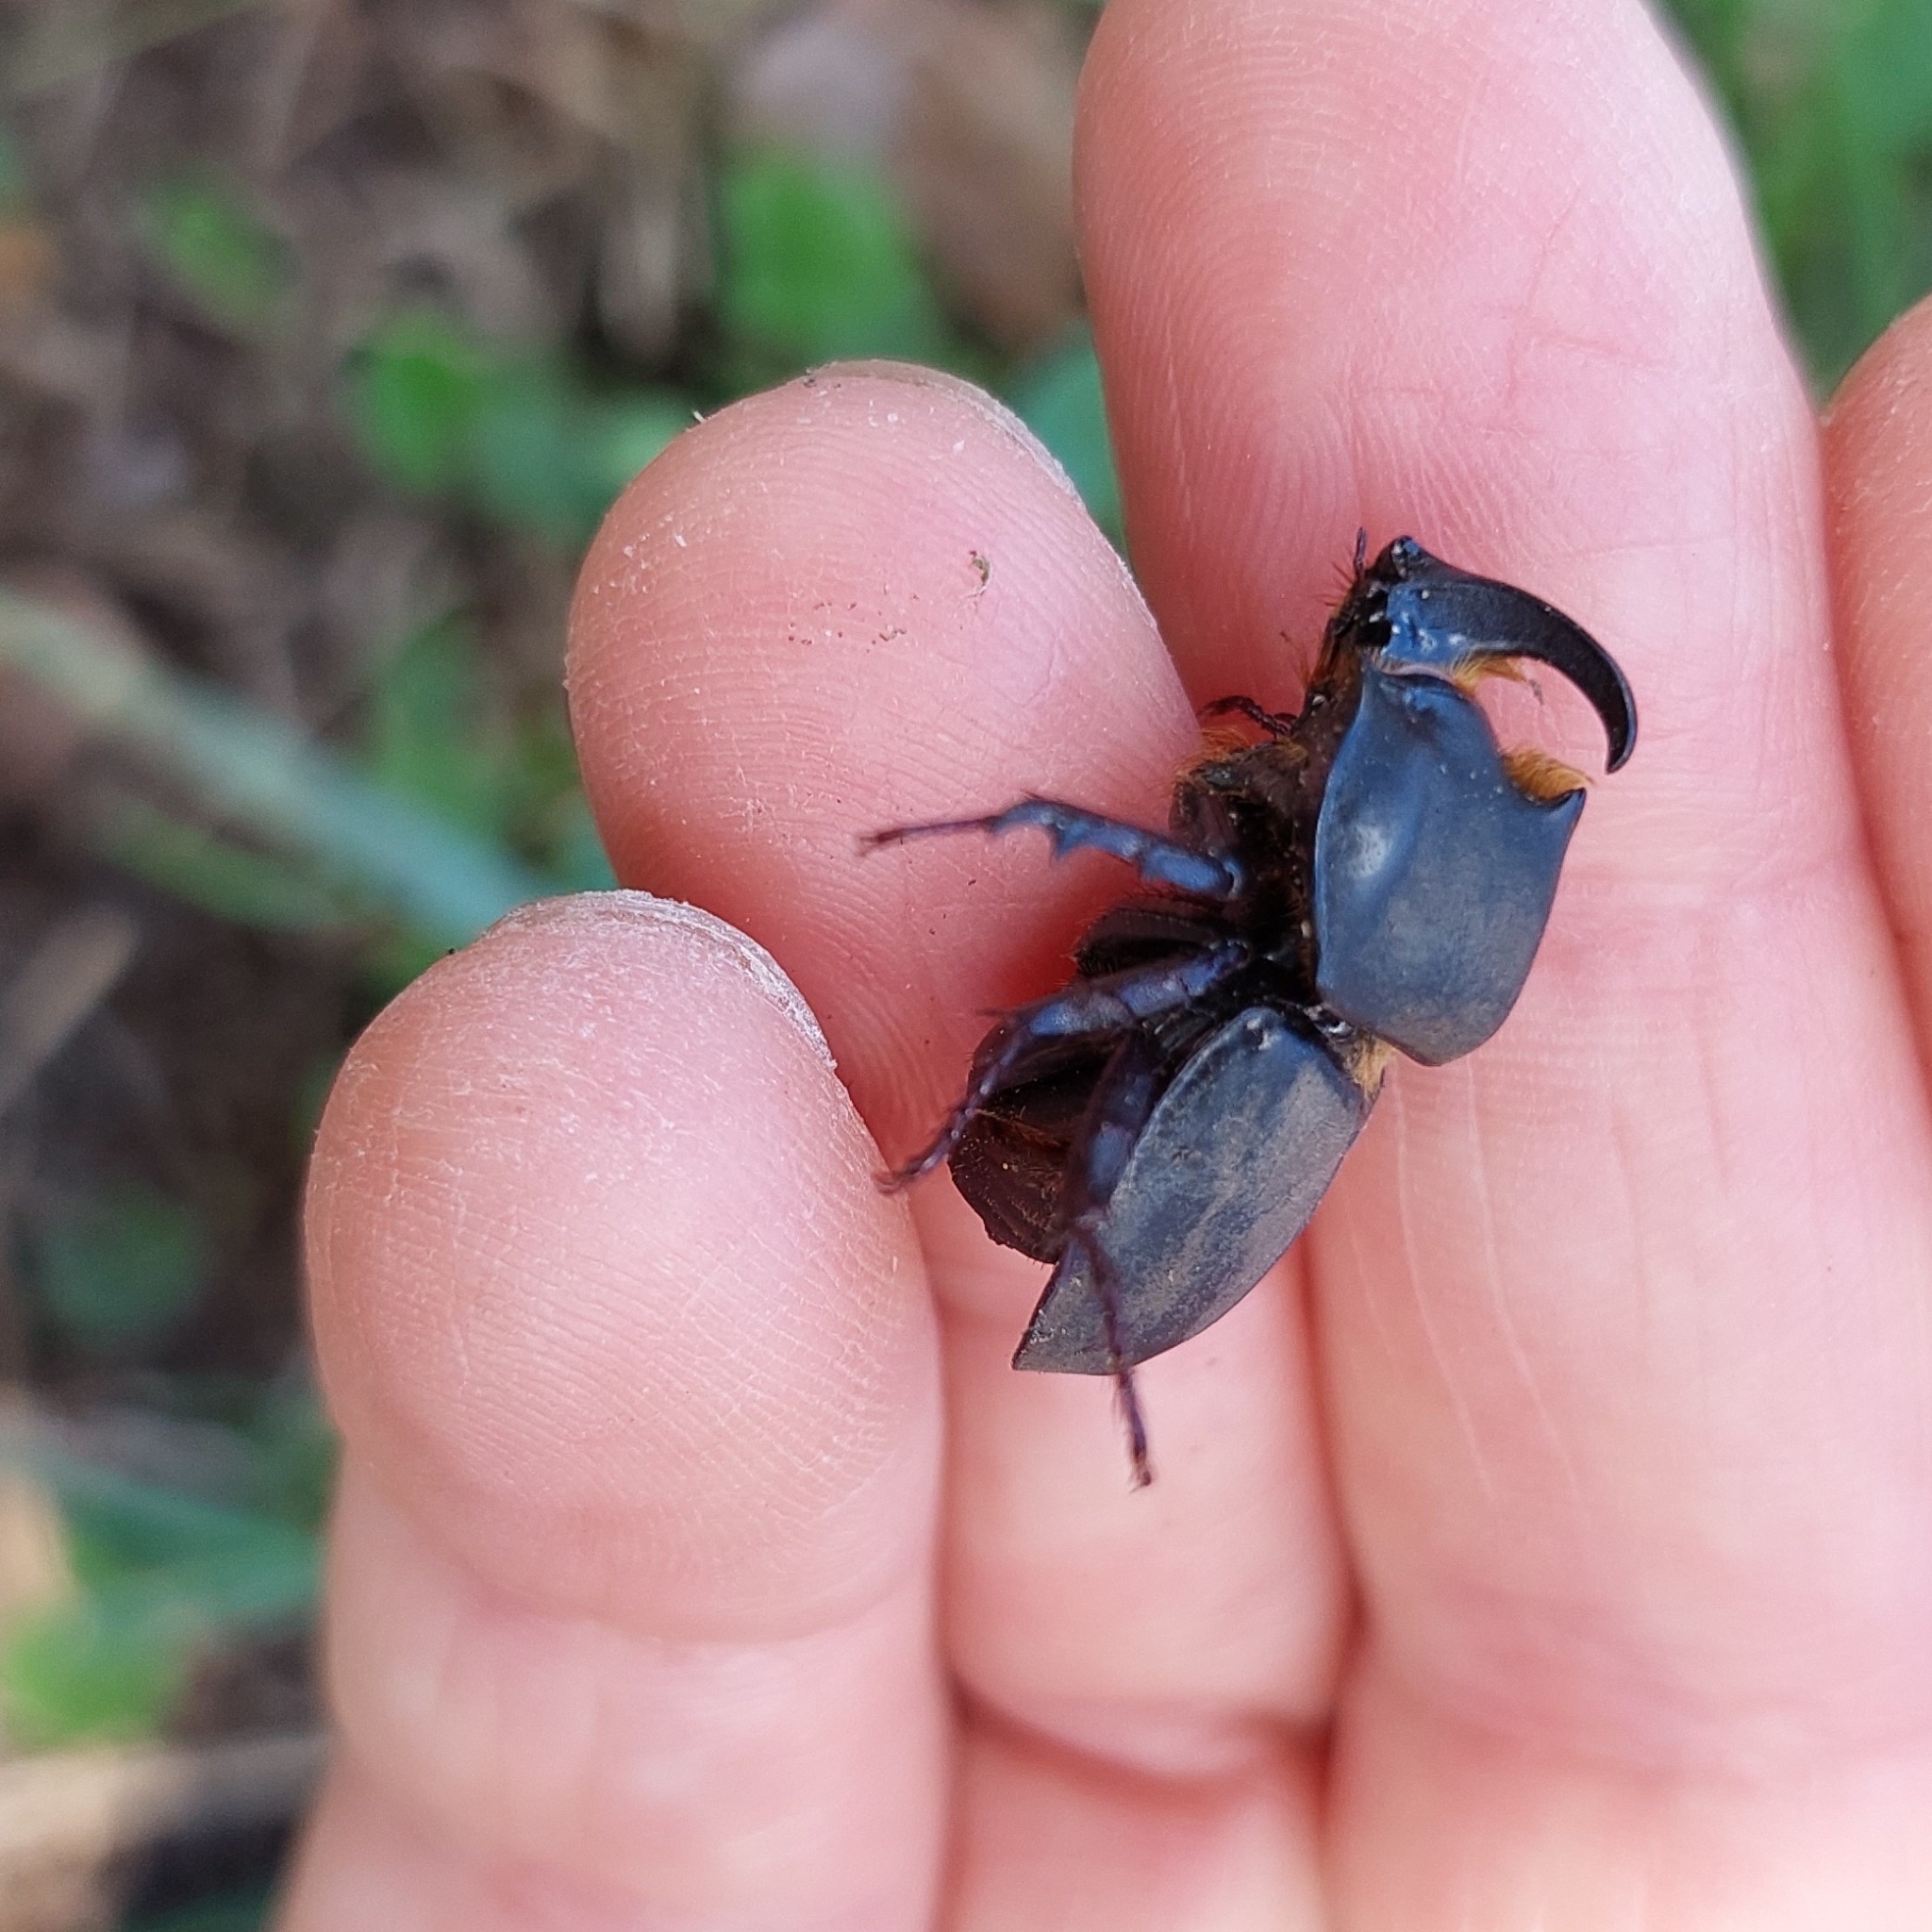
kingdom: Animalia
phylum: Arthropoda
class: Insecta
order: Coleoptera
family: Scarabaeidae
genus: Diloboderus
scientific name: Diloboderus abderus
